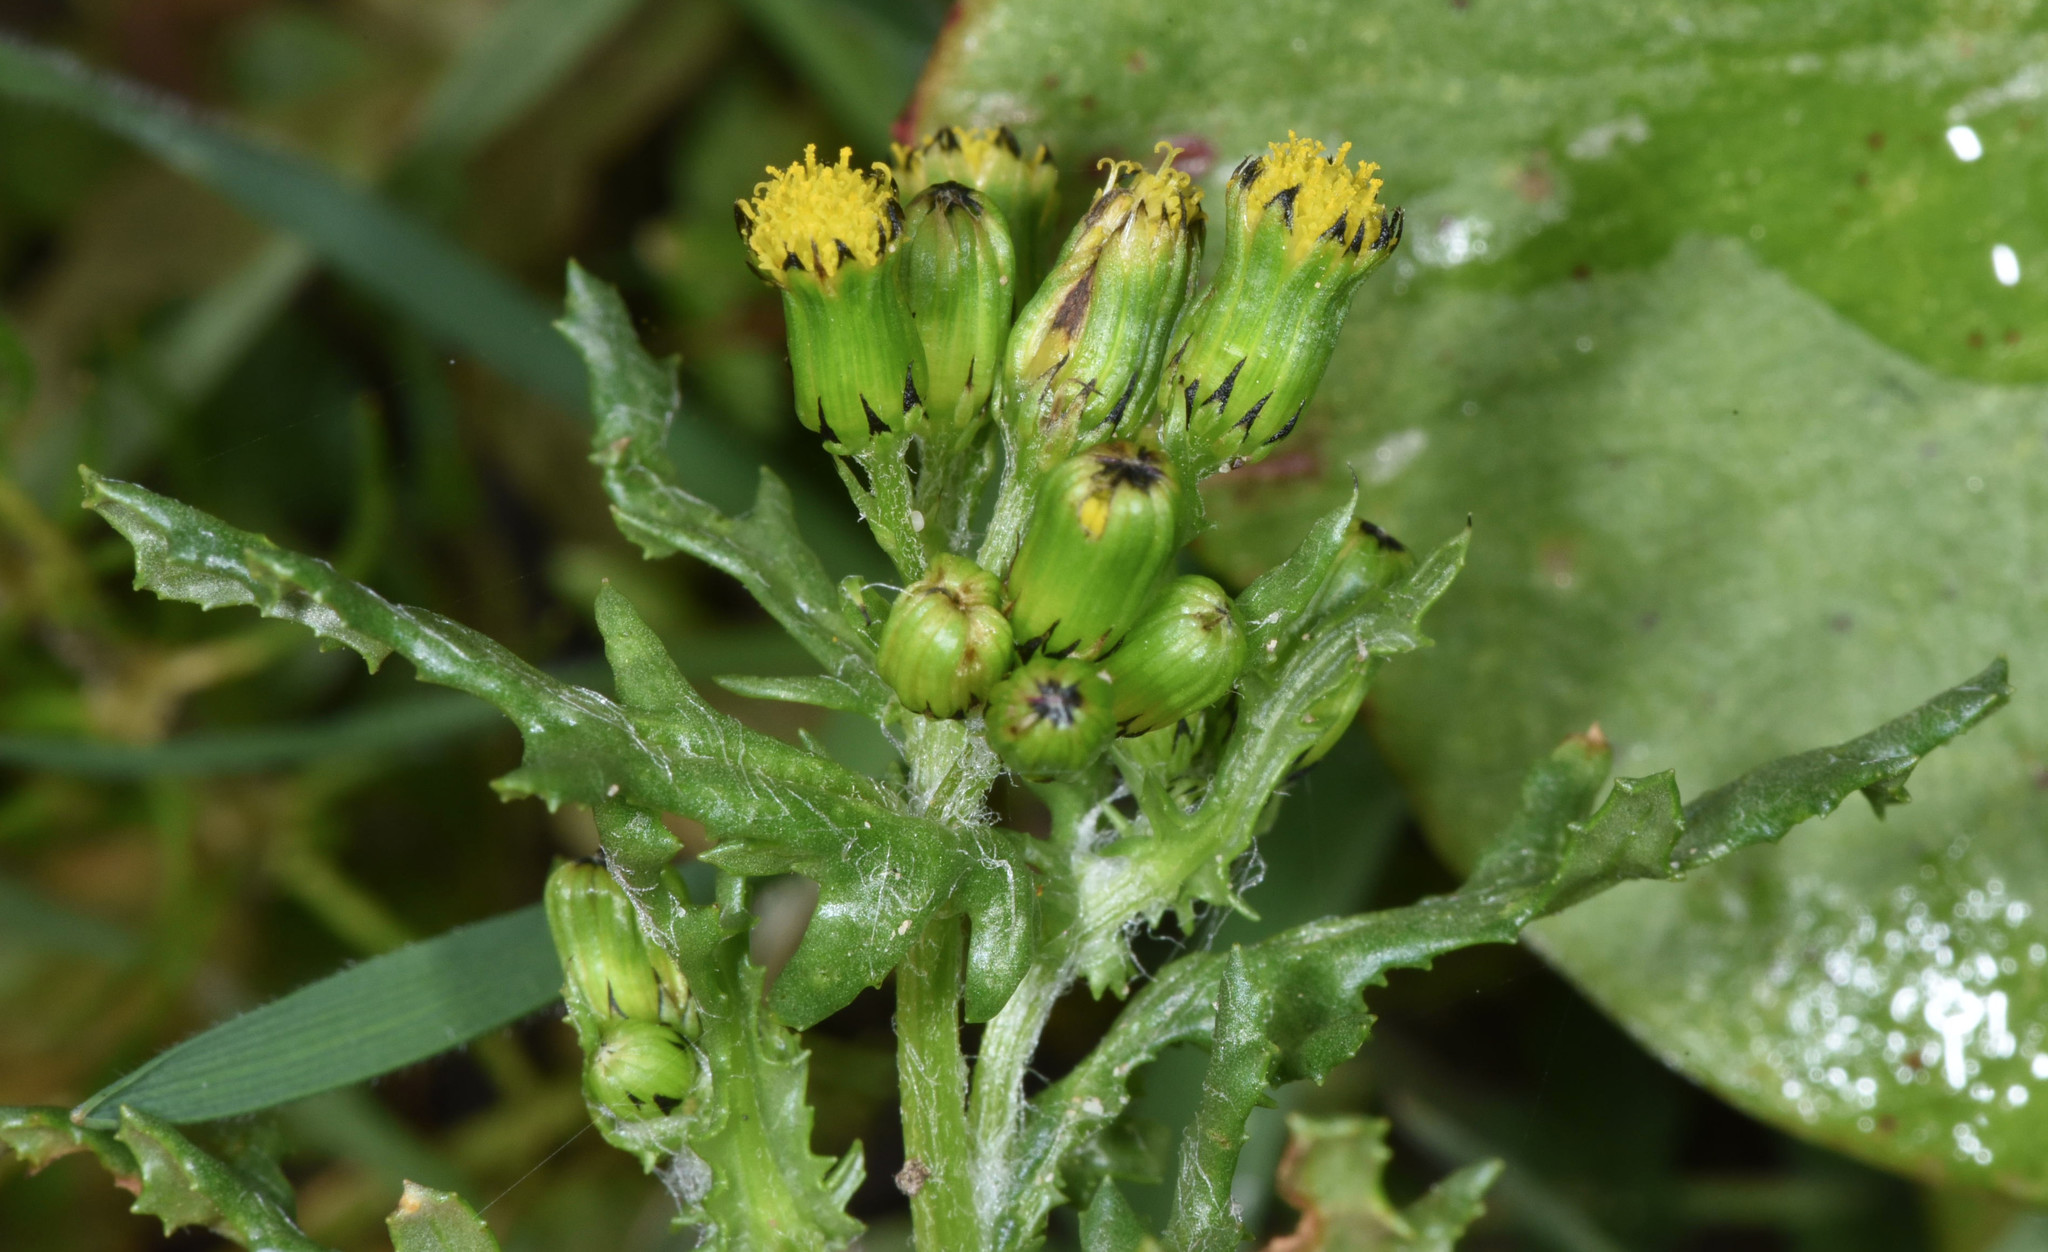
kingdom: Plantae
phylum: Tracheophyta
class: Magnoliopsida
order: Asterales
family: Asteraceae
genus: Senecio
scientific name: Senecio vulgaris
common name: Old-man-in-the-spring
